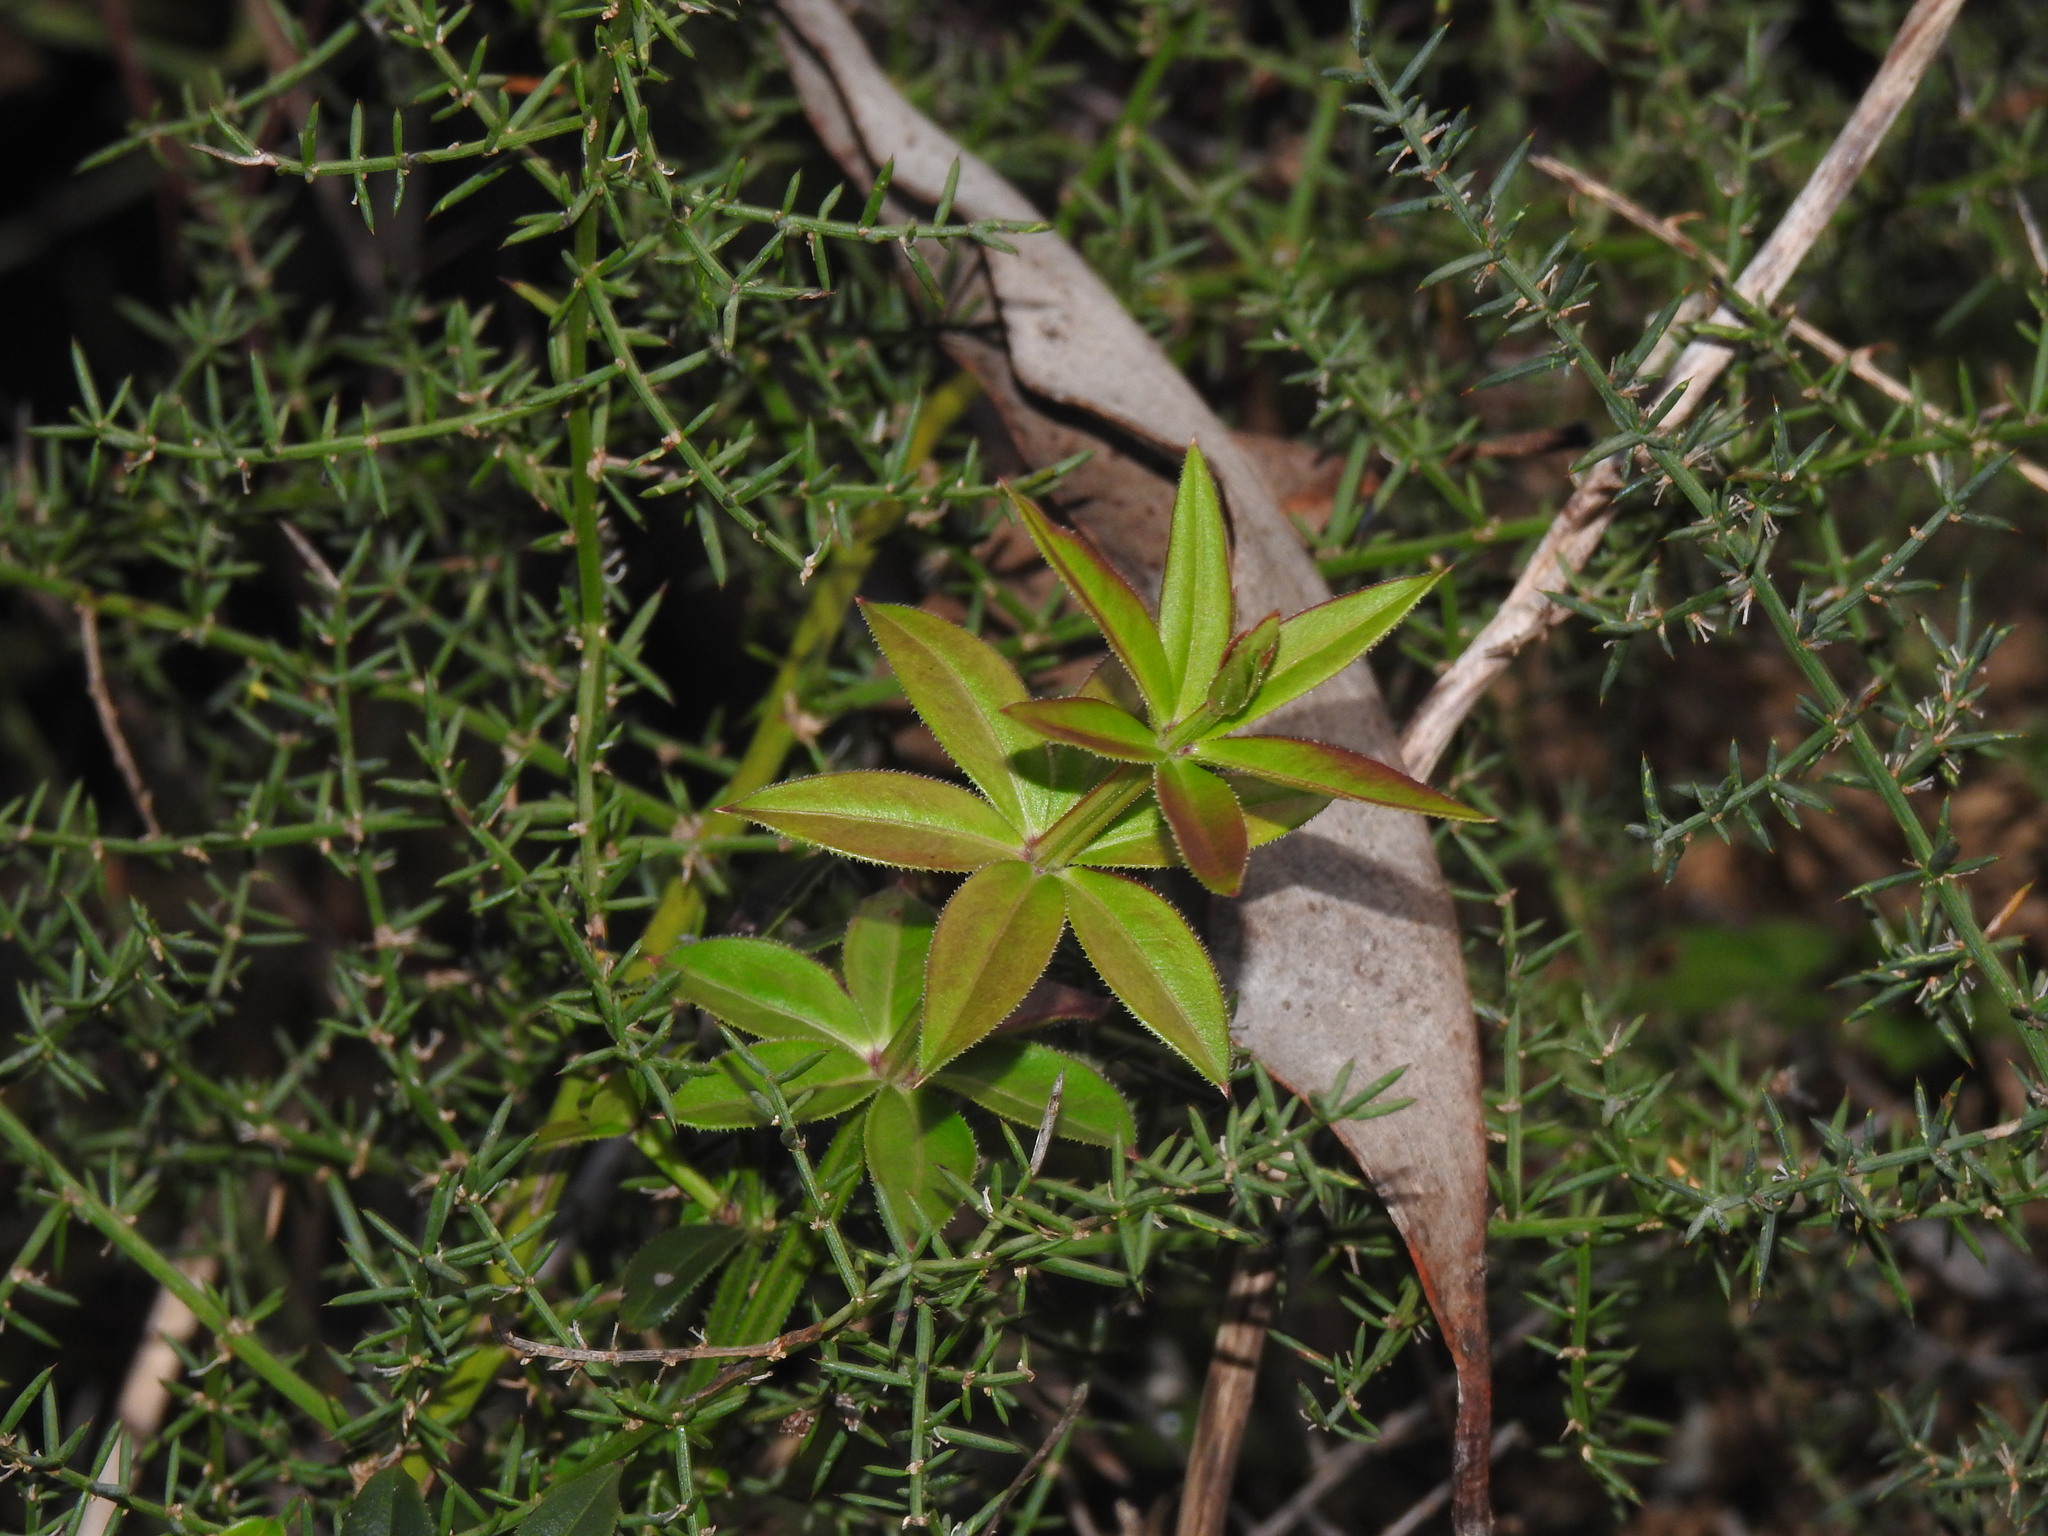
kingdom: Plantae
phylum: Tracheophyta
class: Magnoliopsida
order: Gentianales
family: Rubiaceae
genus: Rubia
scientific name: Rubia peregrina
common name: Wild madder
